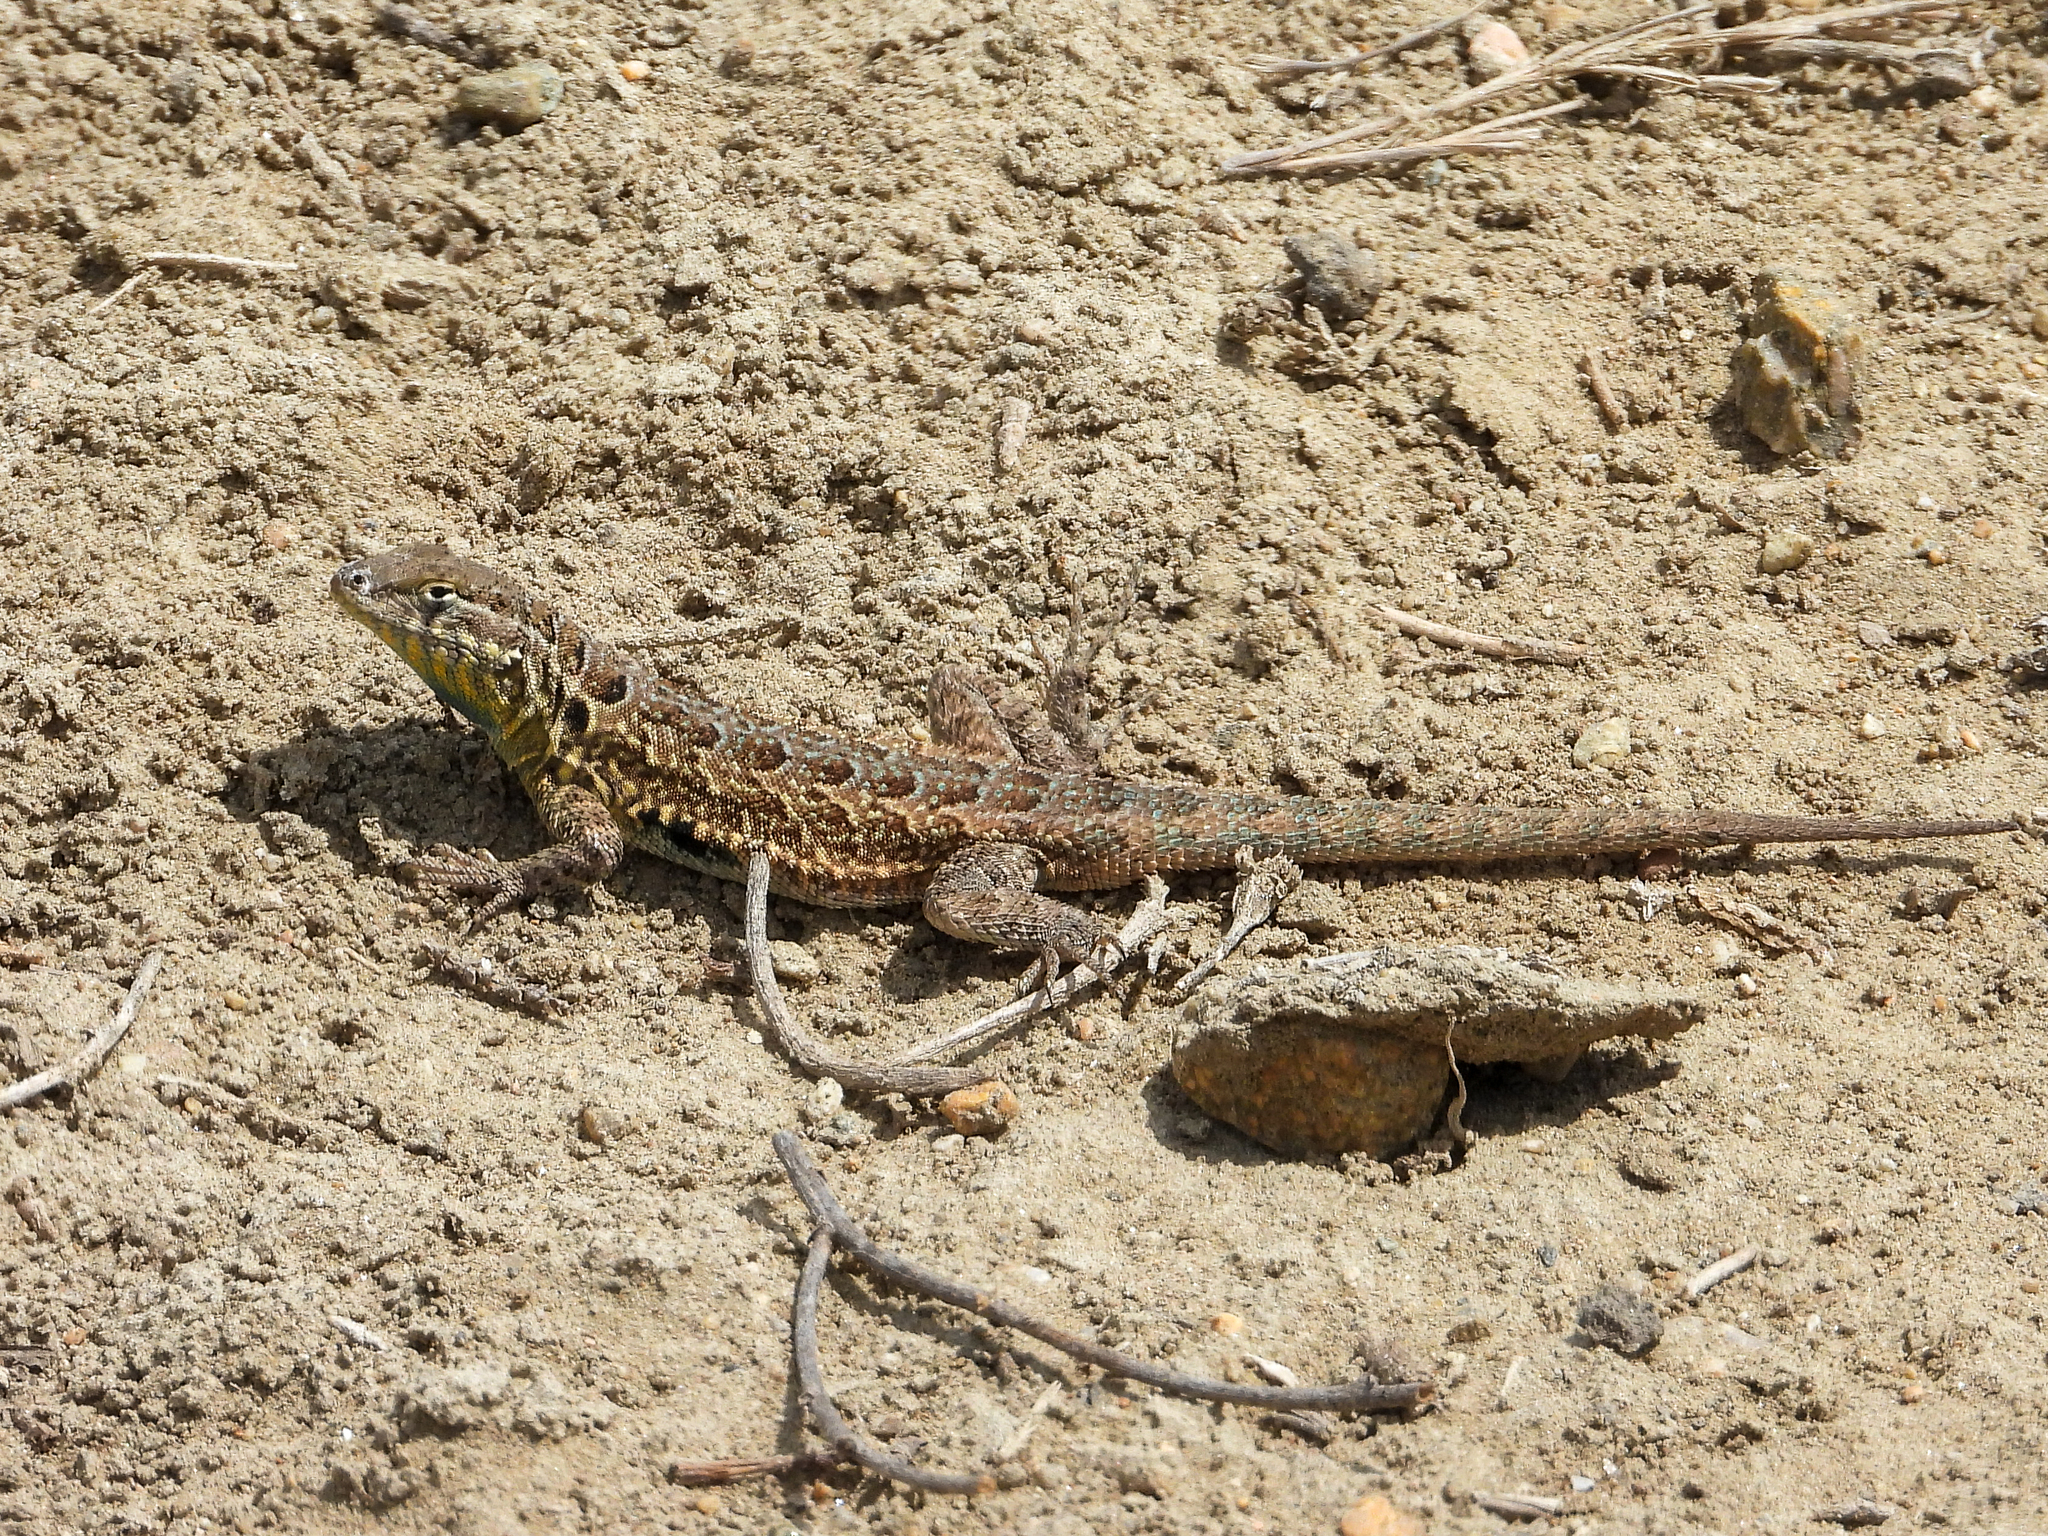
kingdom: Animalia
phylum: Chordata
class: Squamata
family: Phrynosomatidae
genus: Uta
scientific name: Uta stansburiana
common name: Side-blotched lizard
